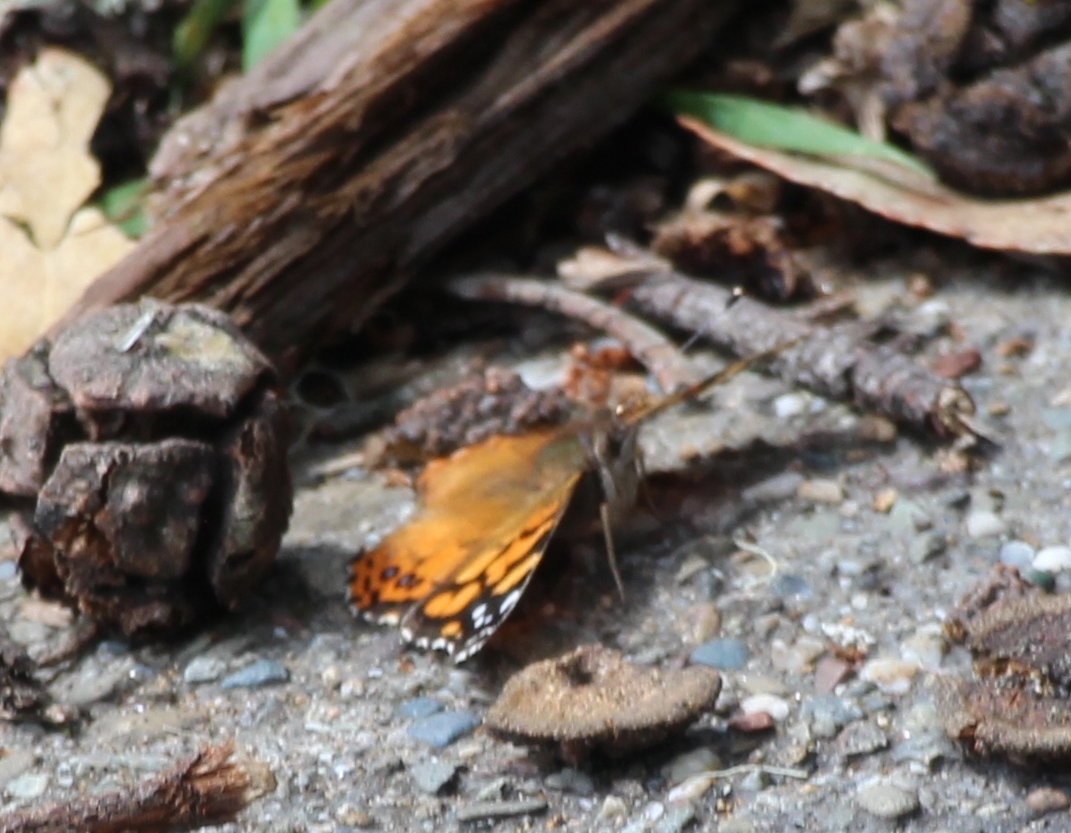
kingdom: Animalia
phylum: Arthropoda
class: Insecta
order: Lepidoptera
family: Nymphalidae
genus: Vanessa
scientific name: Vanessa annabella
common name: West coast lady
